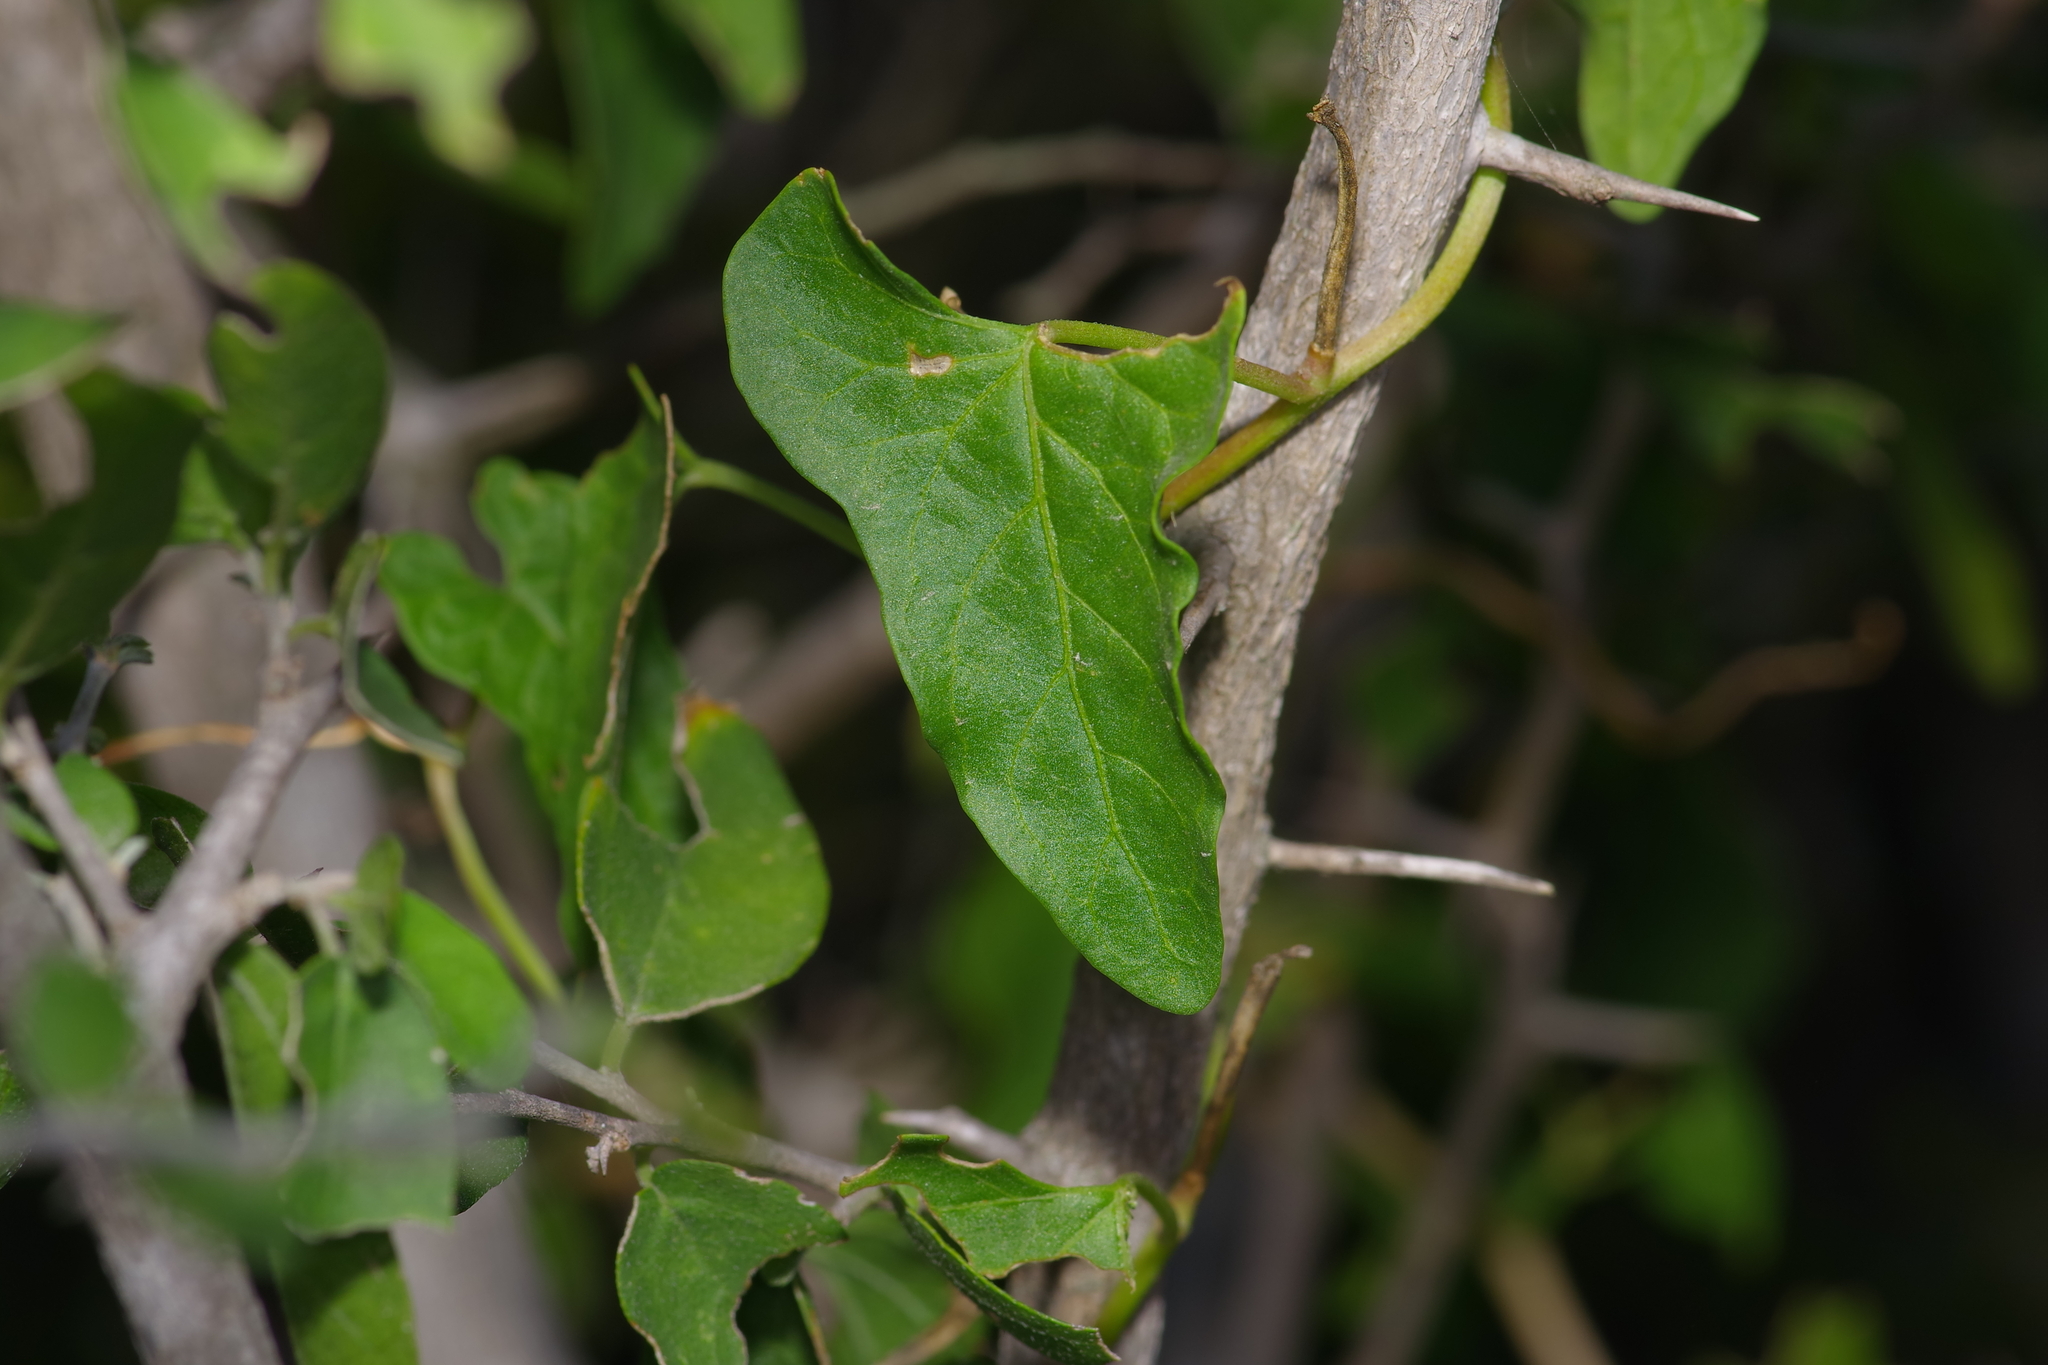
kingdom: Plantae
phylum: Tracheophyta
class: Magnoliopsida
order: Solanales
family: Convolvulaceae
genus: Ipomoea
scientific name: Ipomoea rupicola
